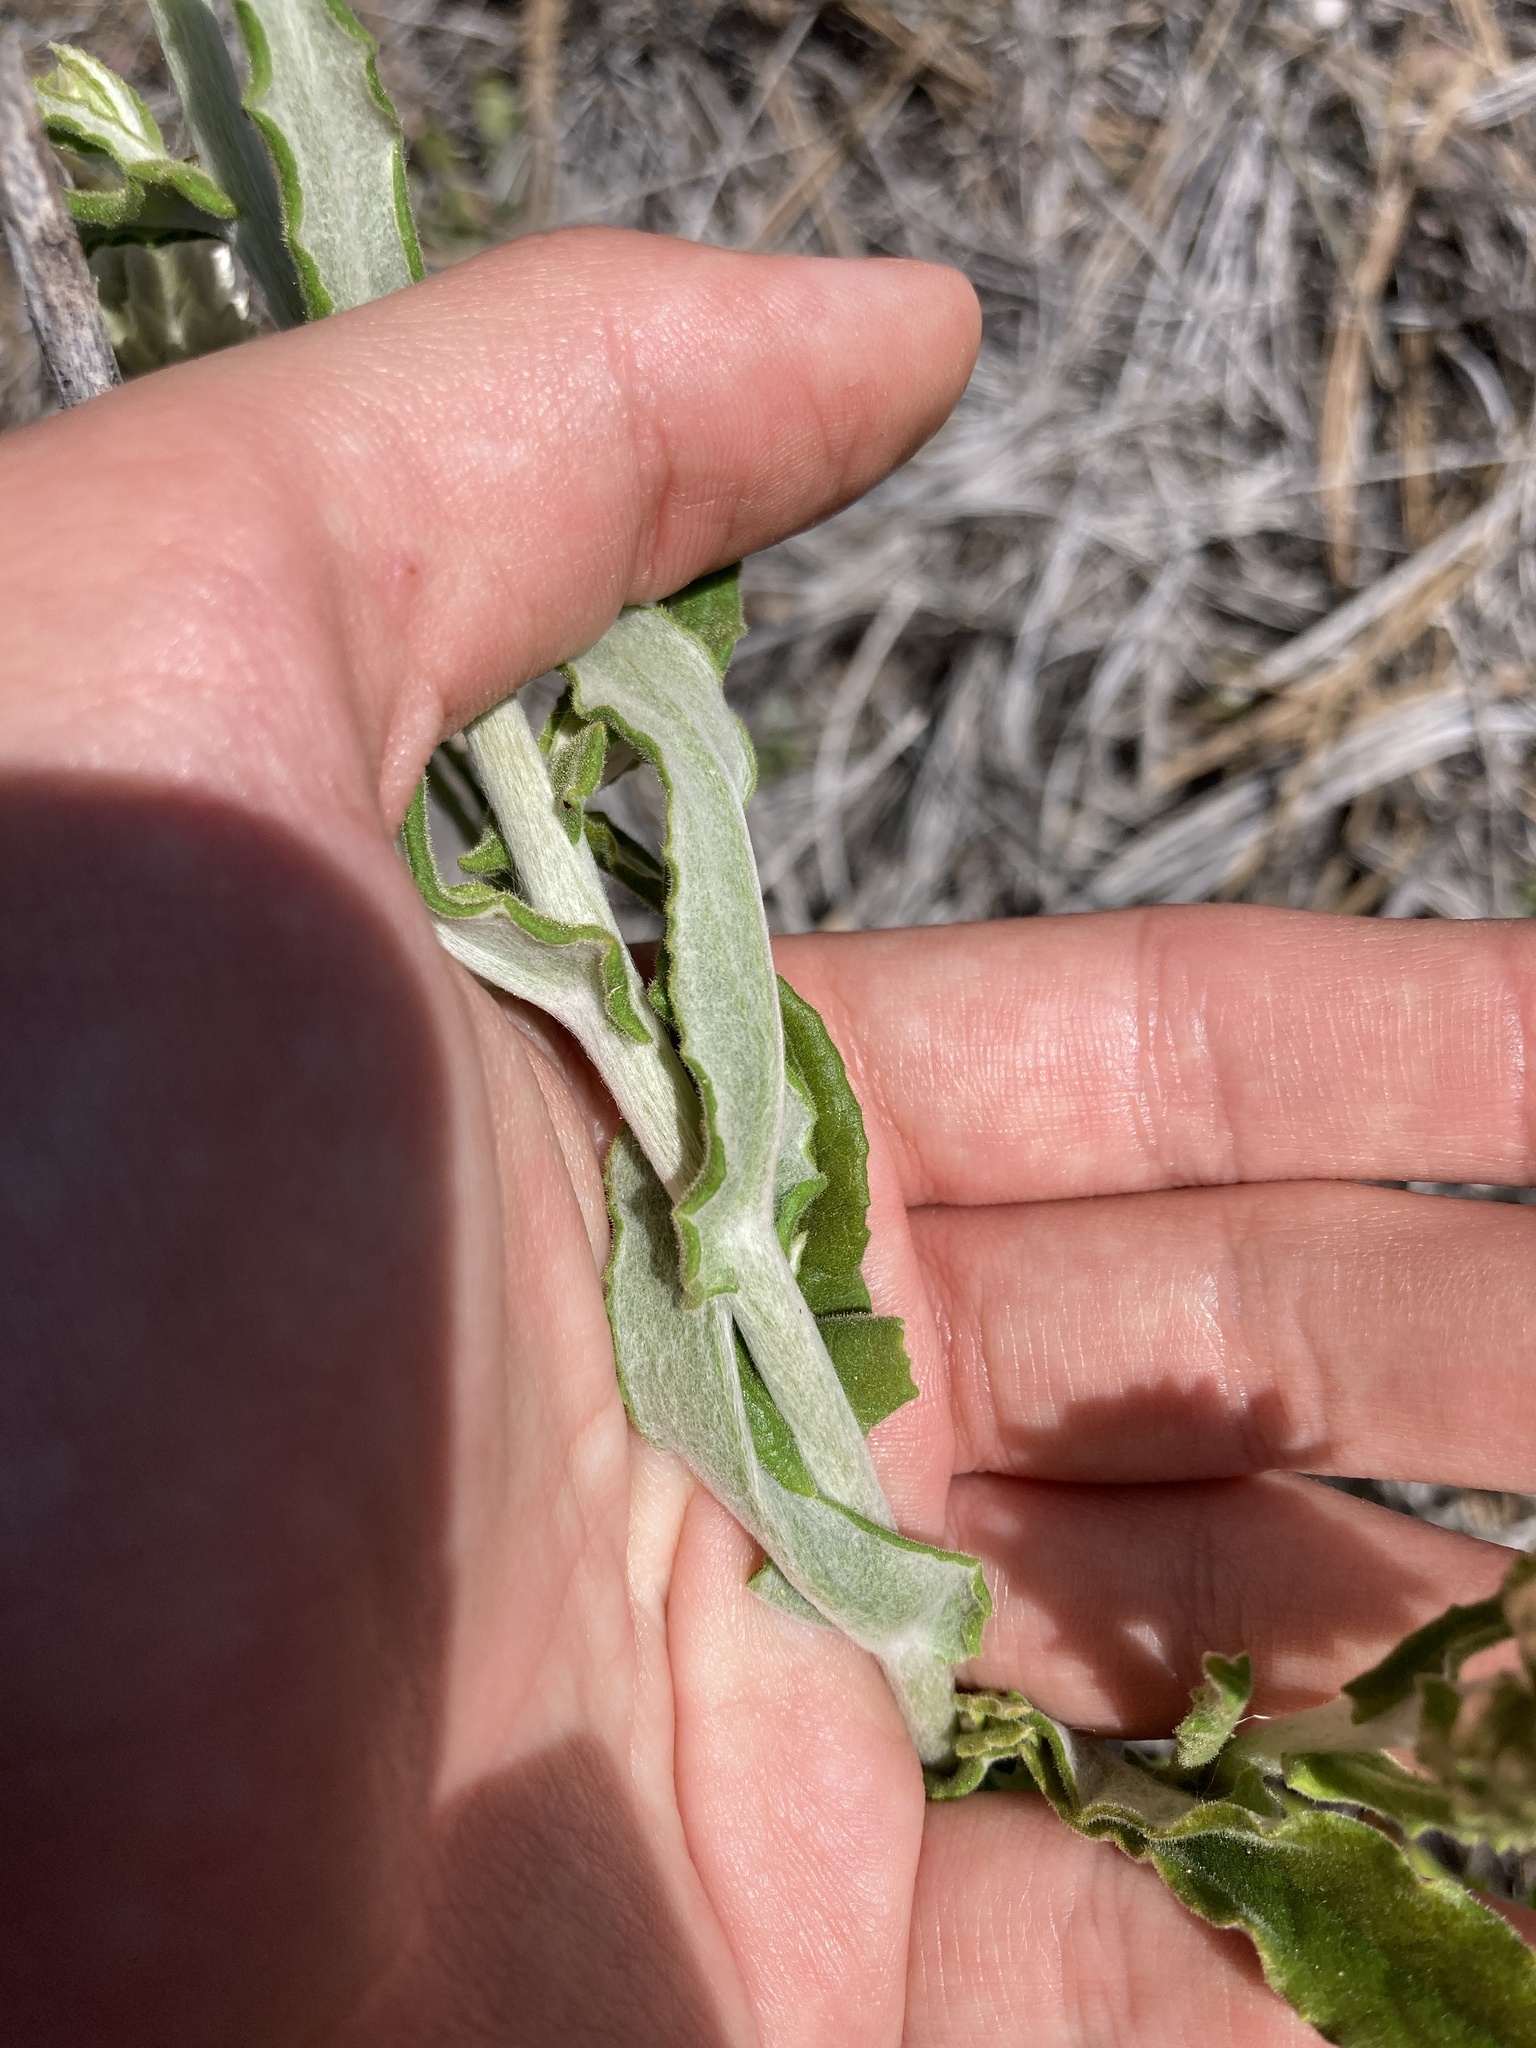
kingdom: Plantae
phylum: Tracheophyta
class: Magnoliopsida
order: Asterales
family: Asteraceae
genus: Pseudognaphalium
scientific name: Pseudognaphalium biolettii
